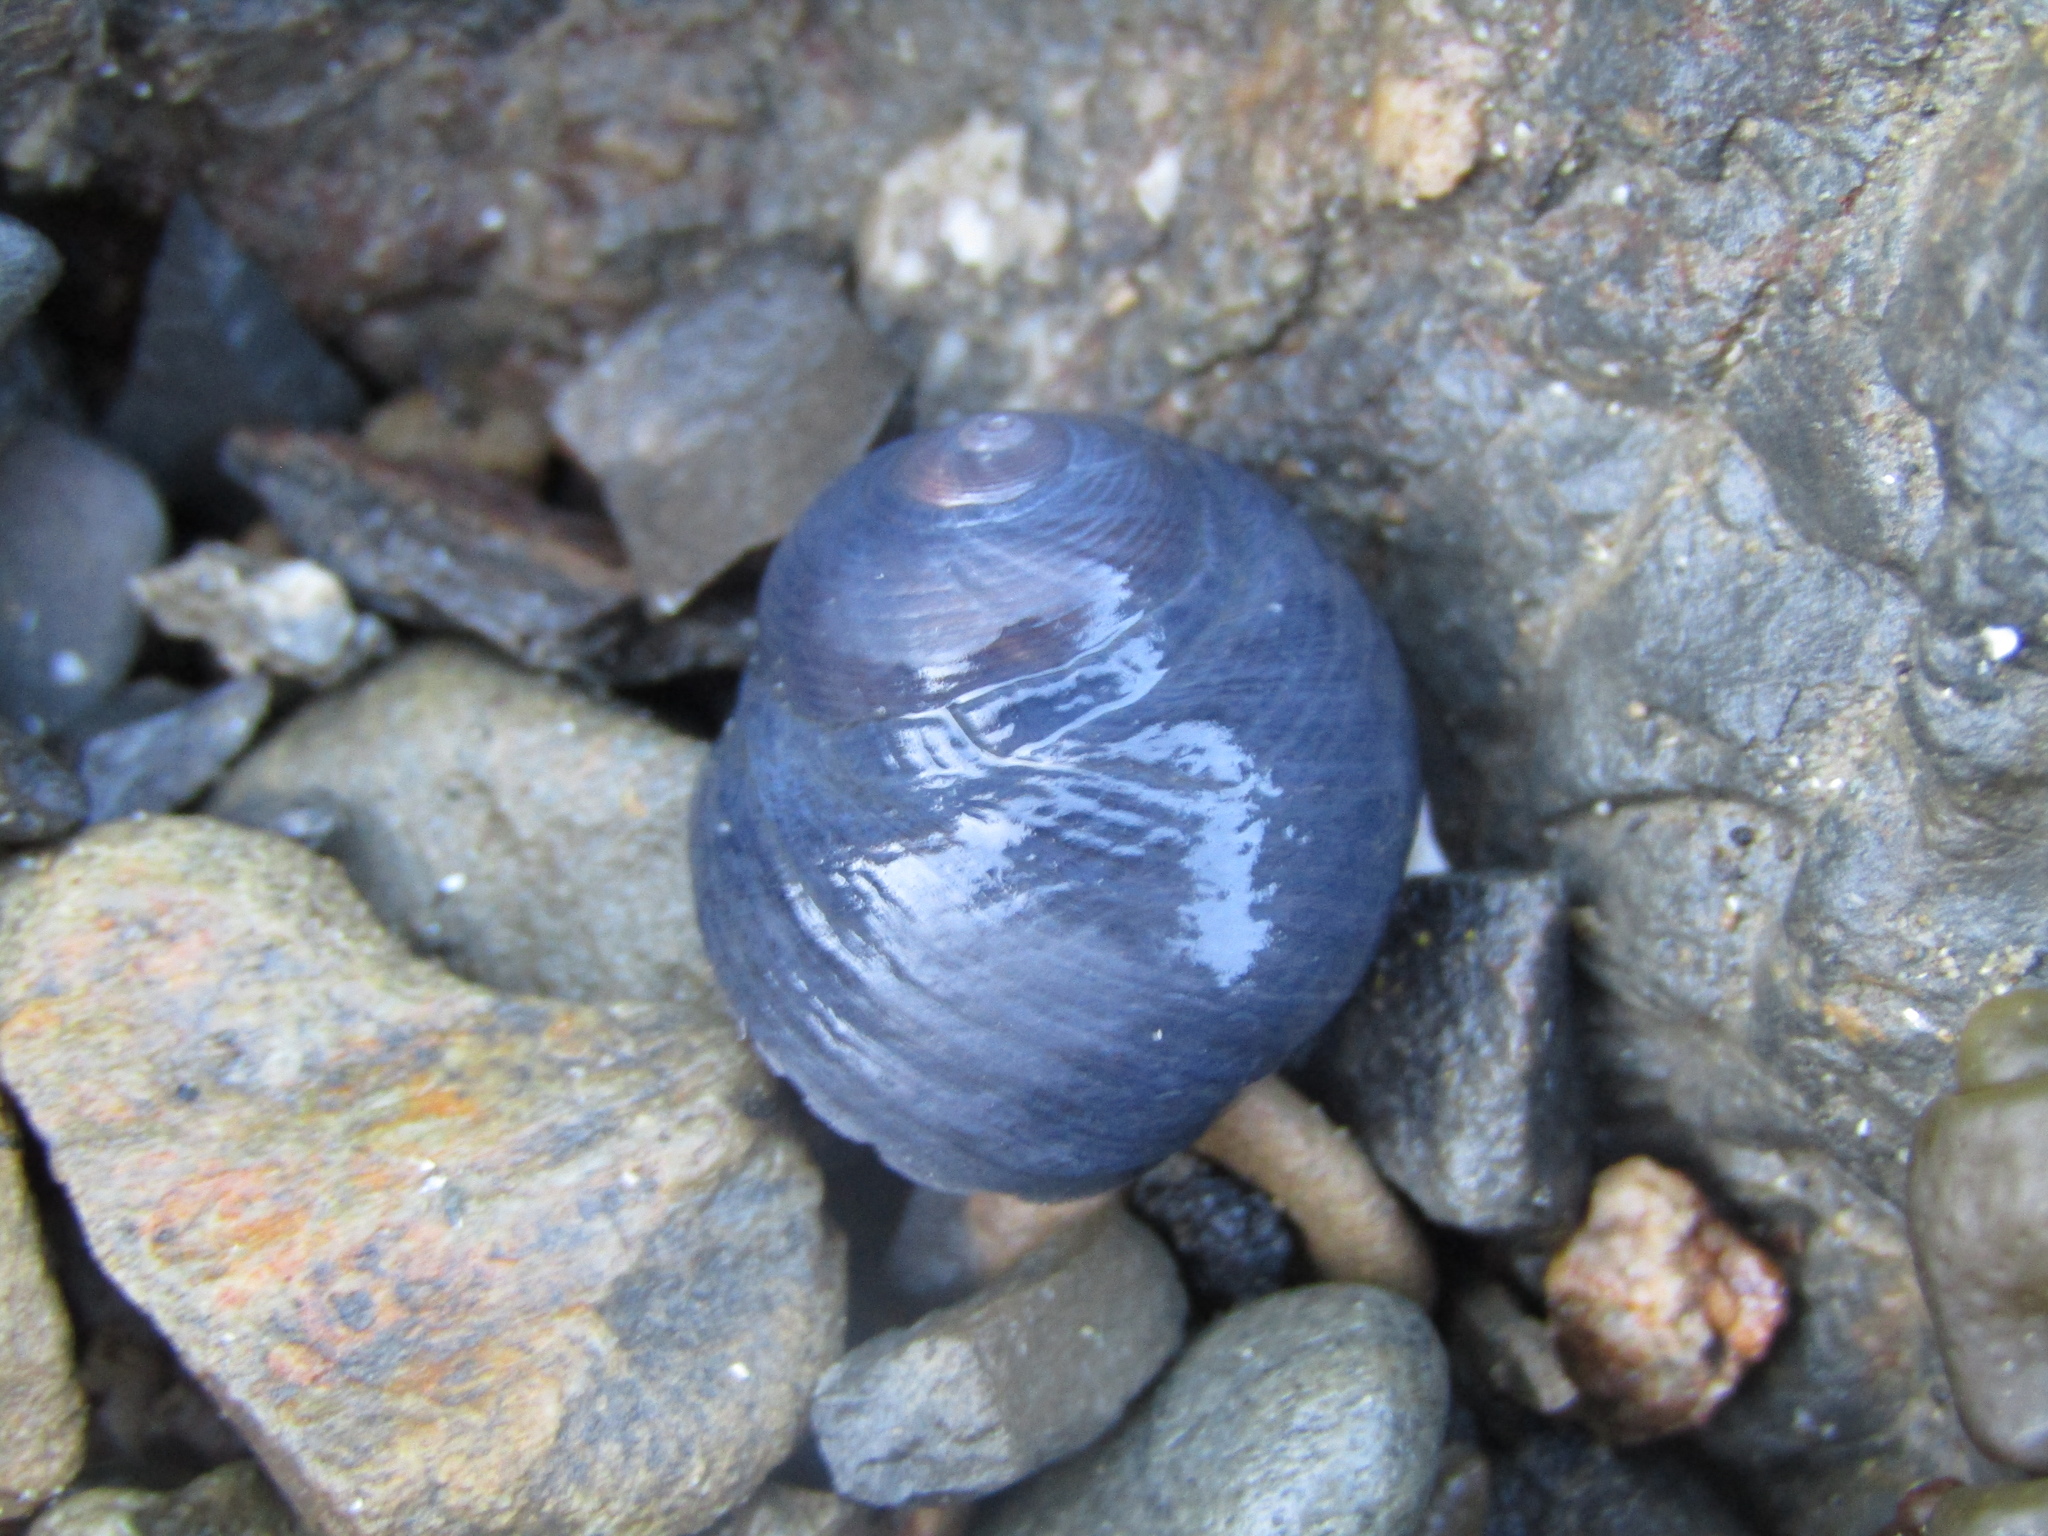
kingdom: Animalia
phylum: Mollusca
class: Gastropoda
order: Trochida
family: Trochidae
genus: Diloma
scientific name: Diloma nigerrimum
